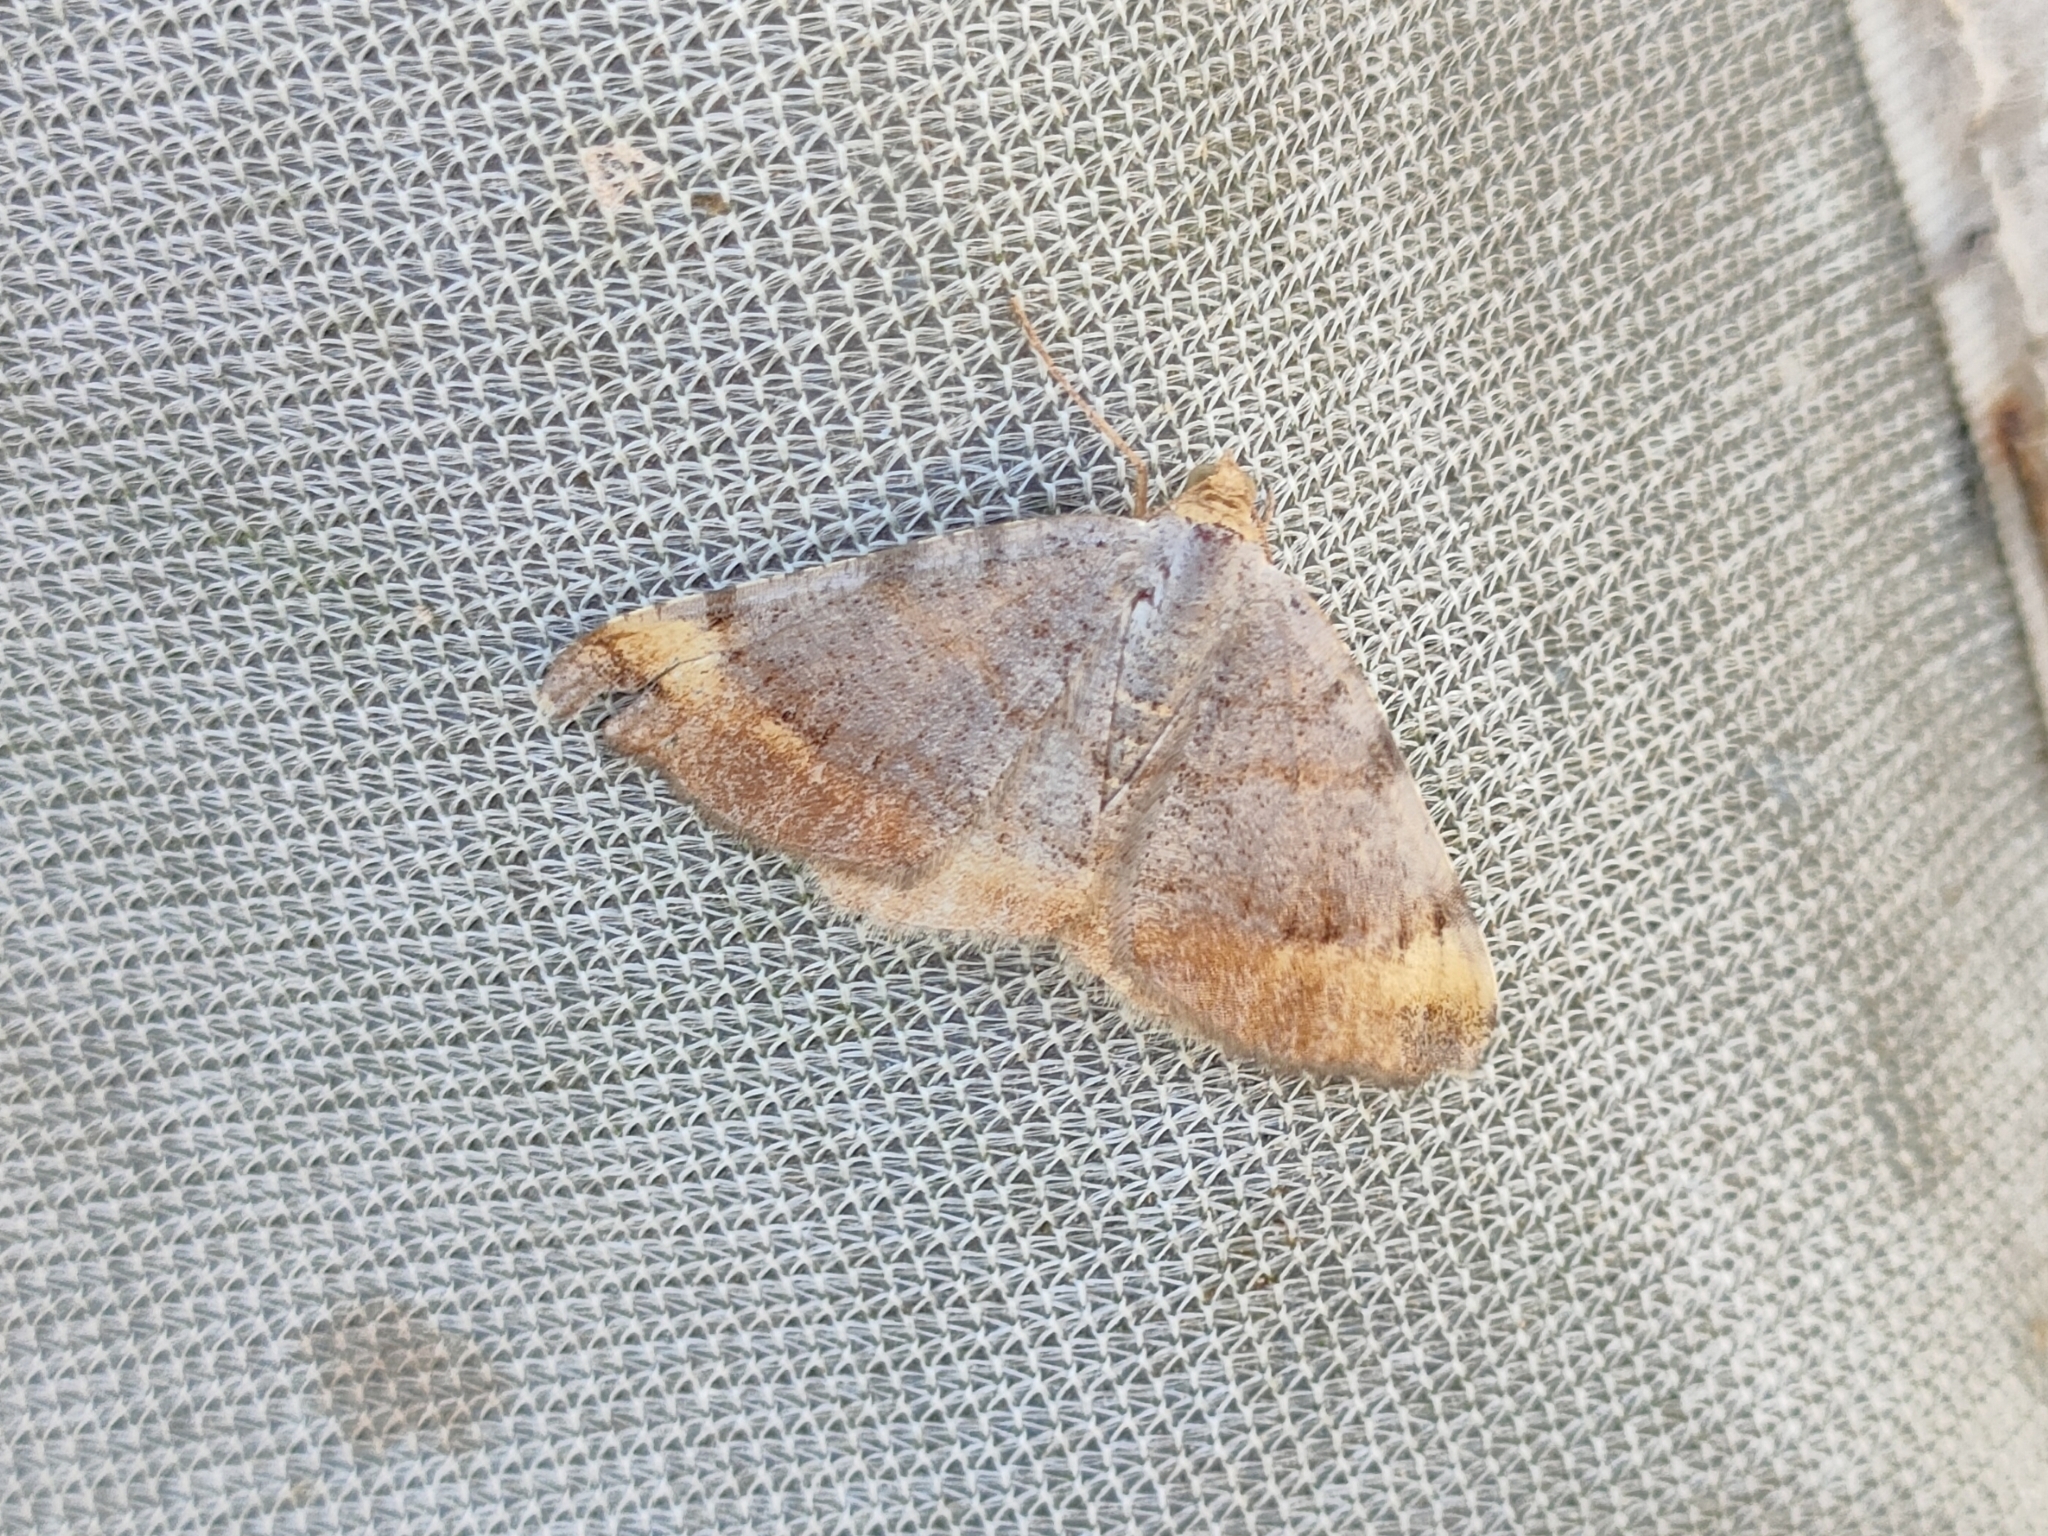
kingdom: Animalia
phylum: Arthropoda
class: Insecta
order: Lepidoptera
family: Geometridae
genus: Macaria
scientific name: Macaria liturata
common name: Tawny-barred angle
